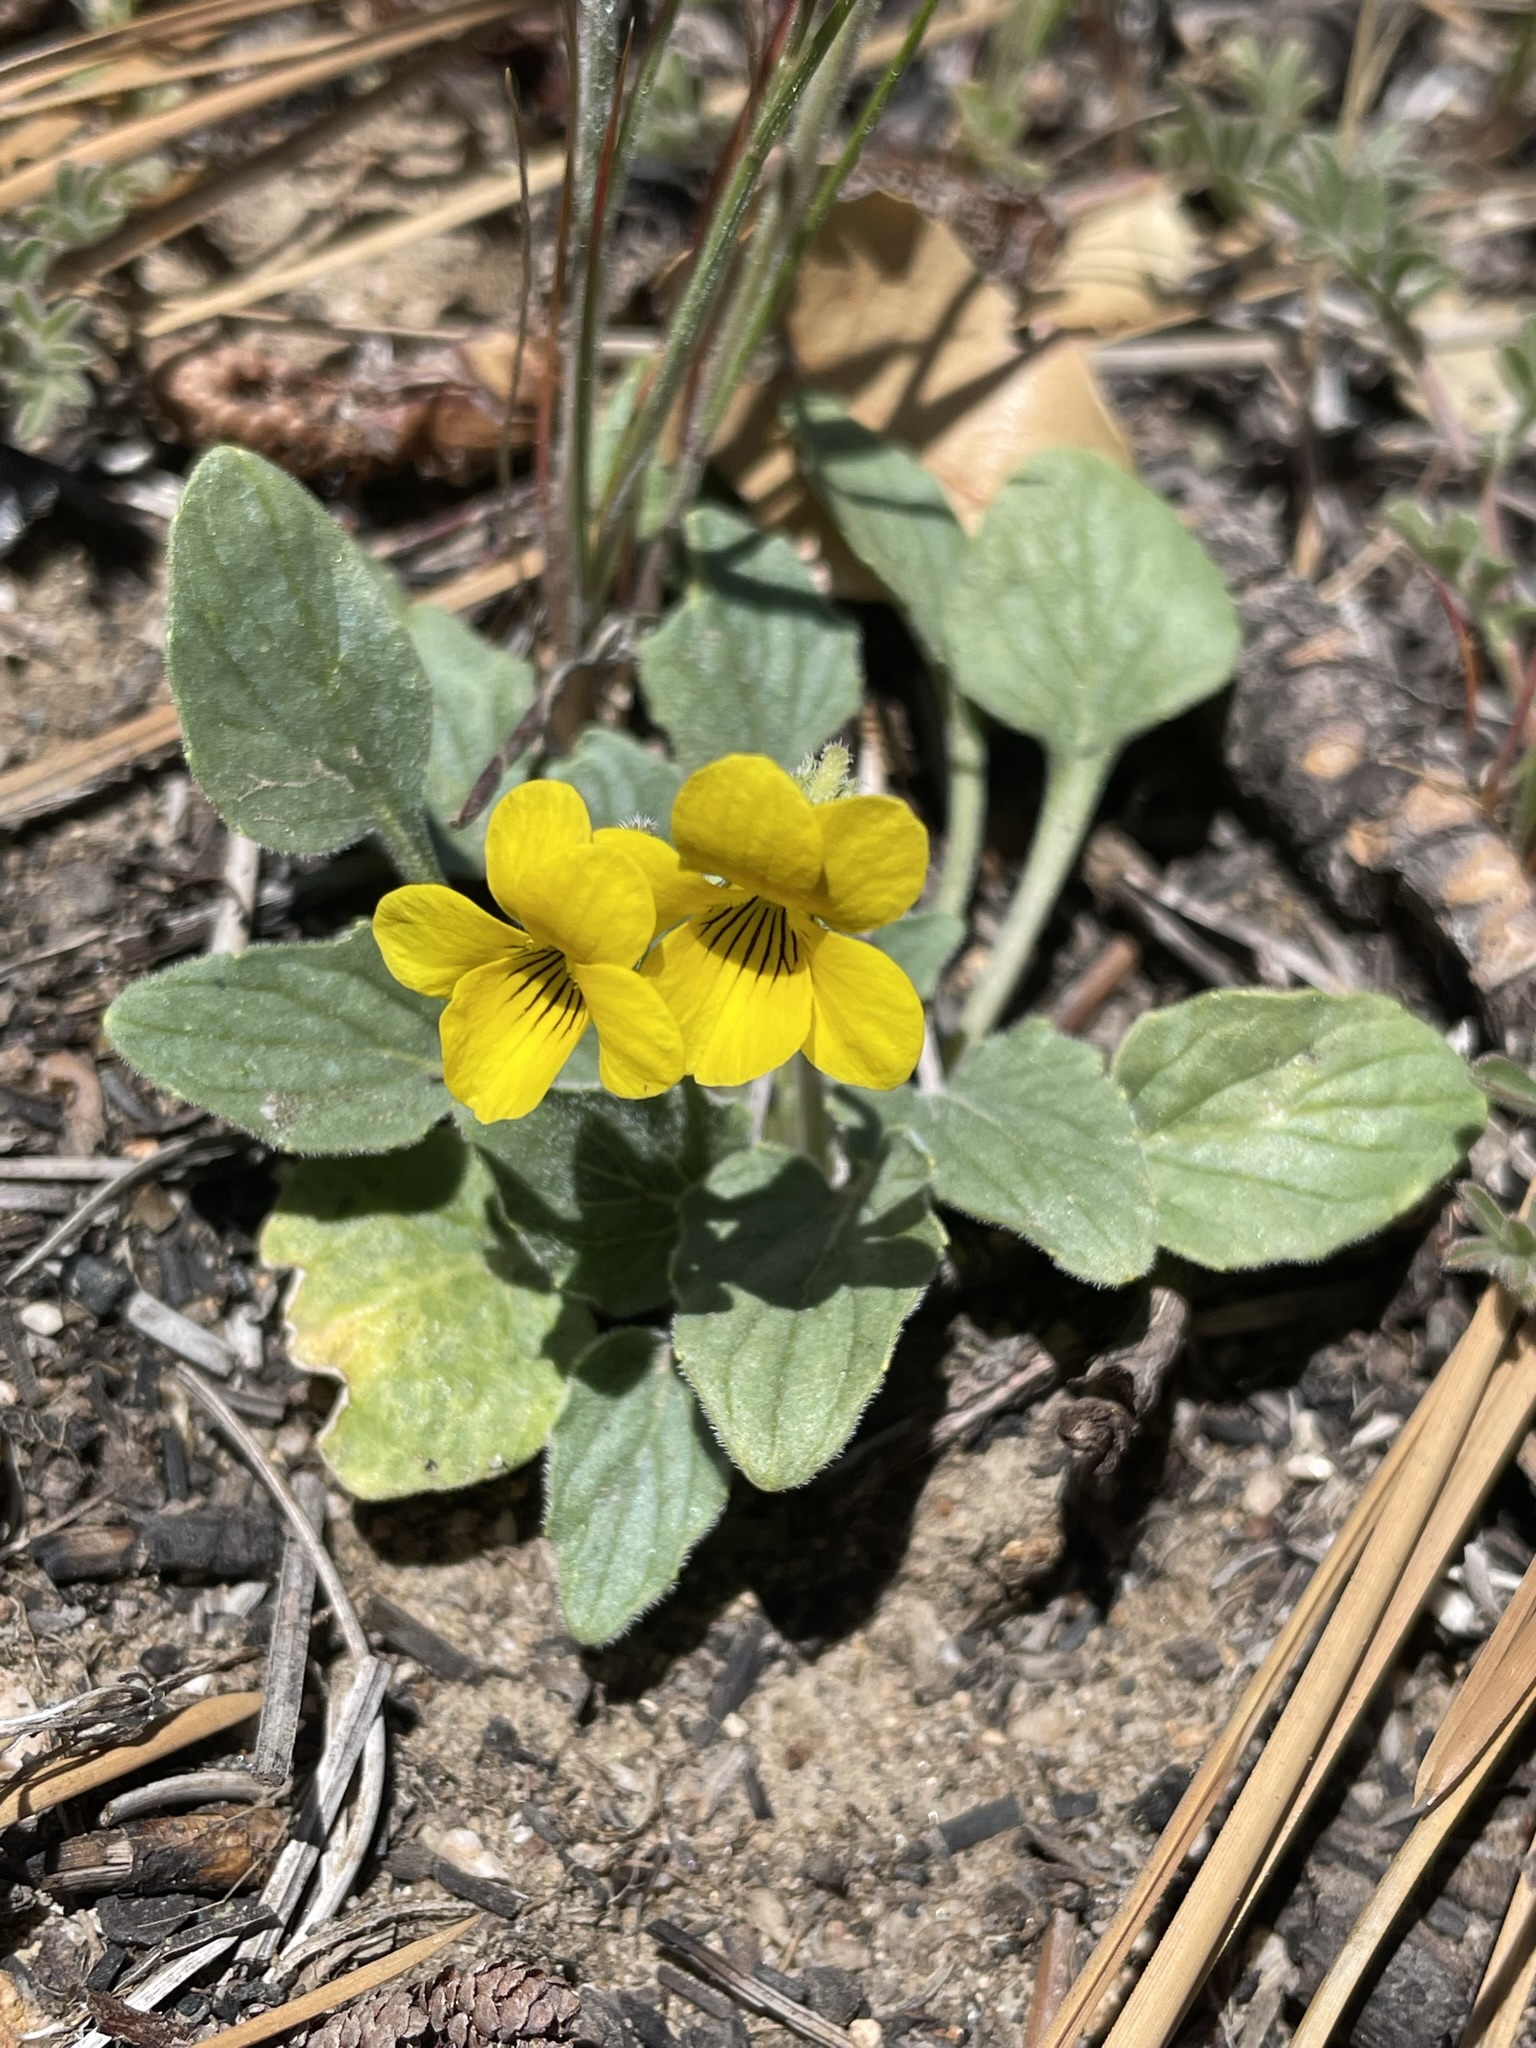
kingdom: Plantae
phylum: Tracheophyta
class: Magnoliopsida
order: Malpighiales
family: Violaceae
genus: Viola
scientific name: Viola purpurea
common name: Pine violet
